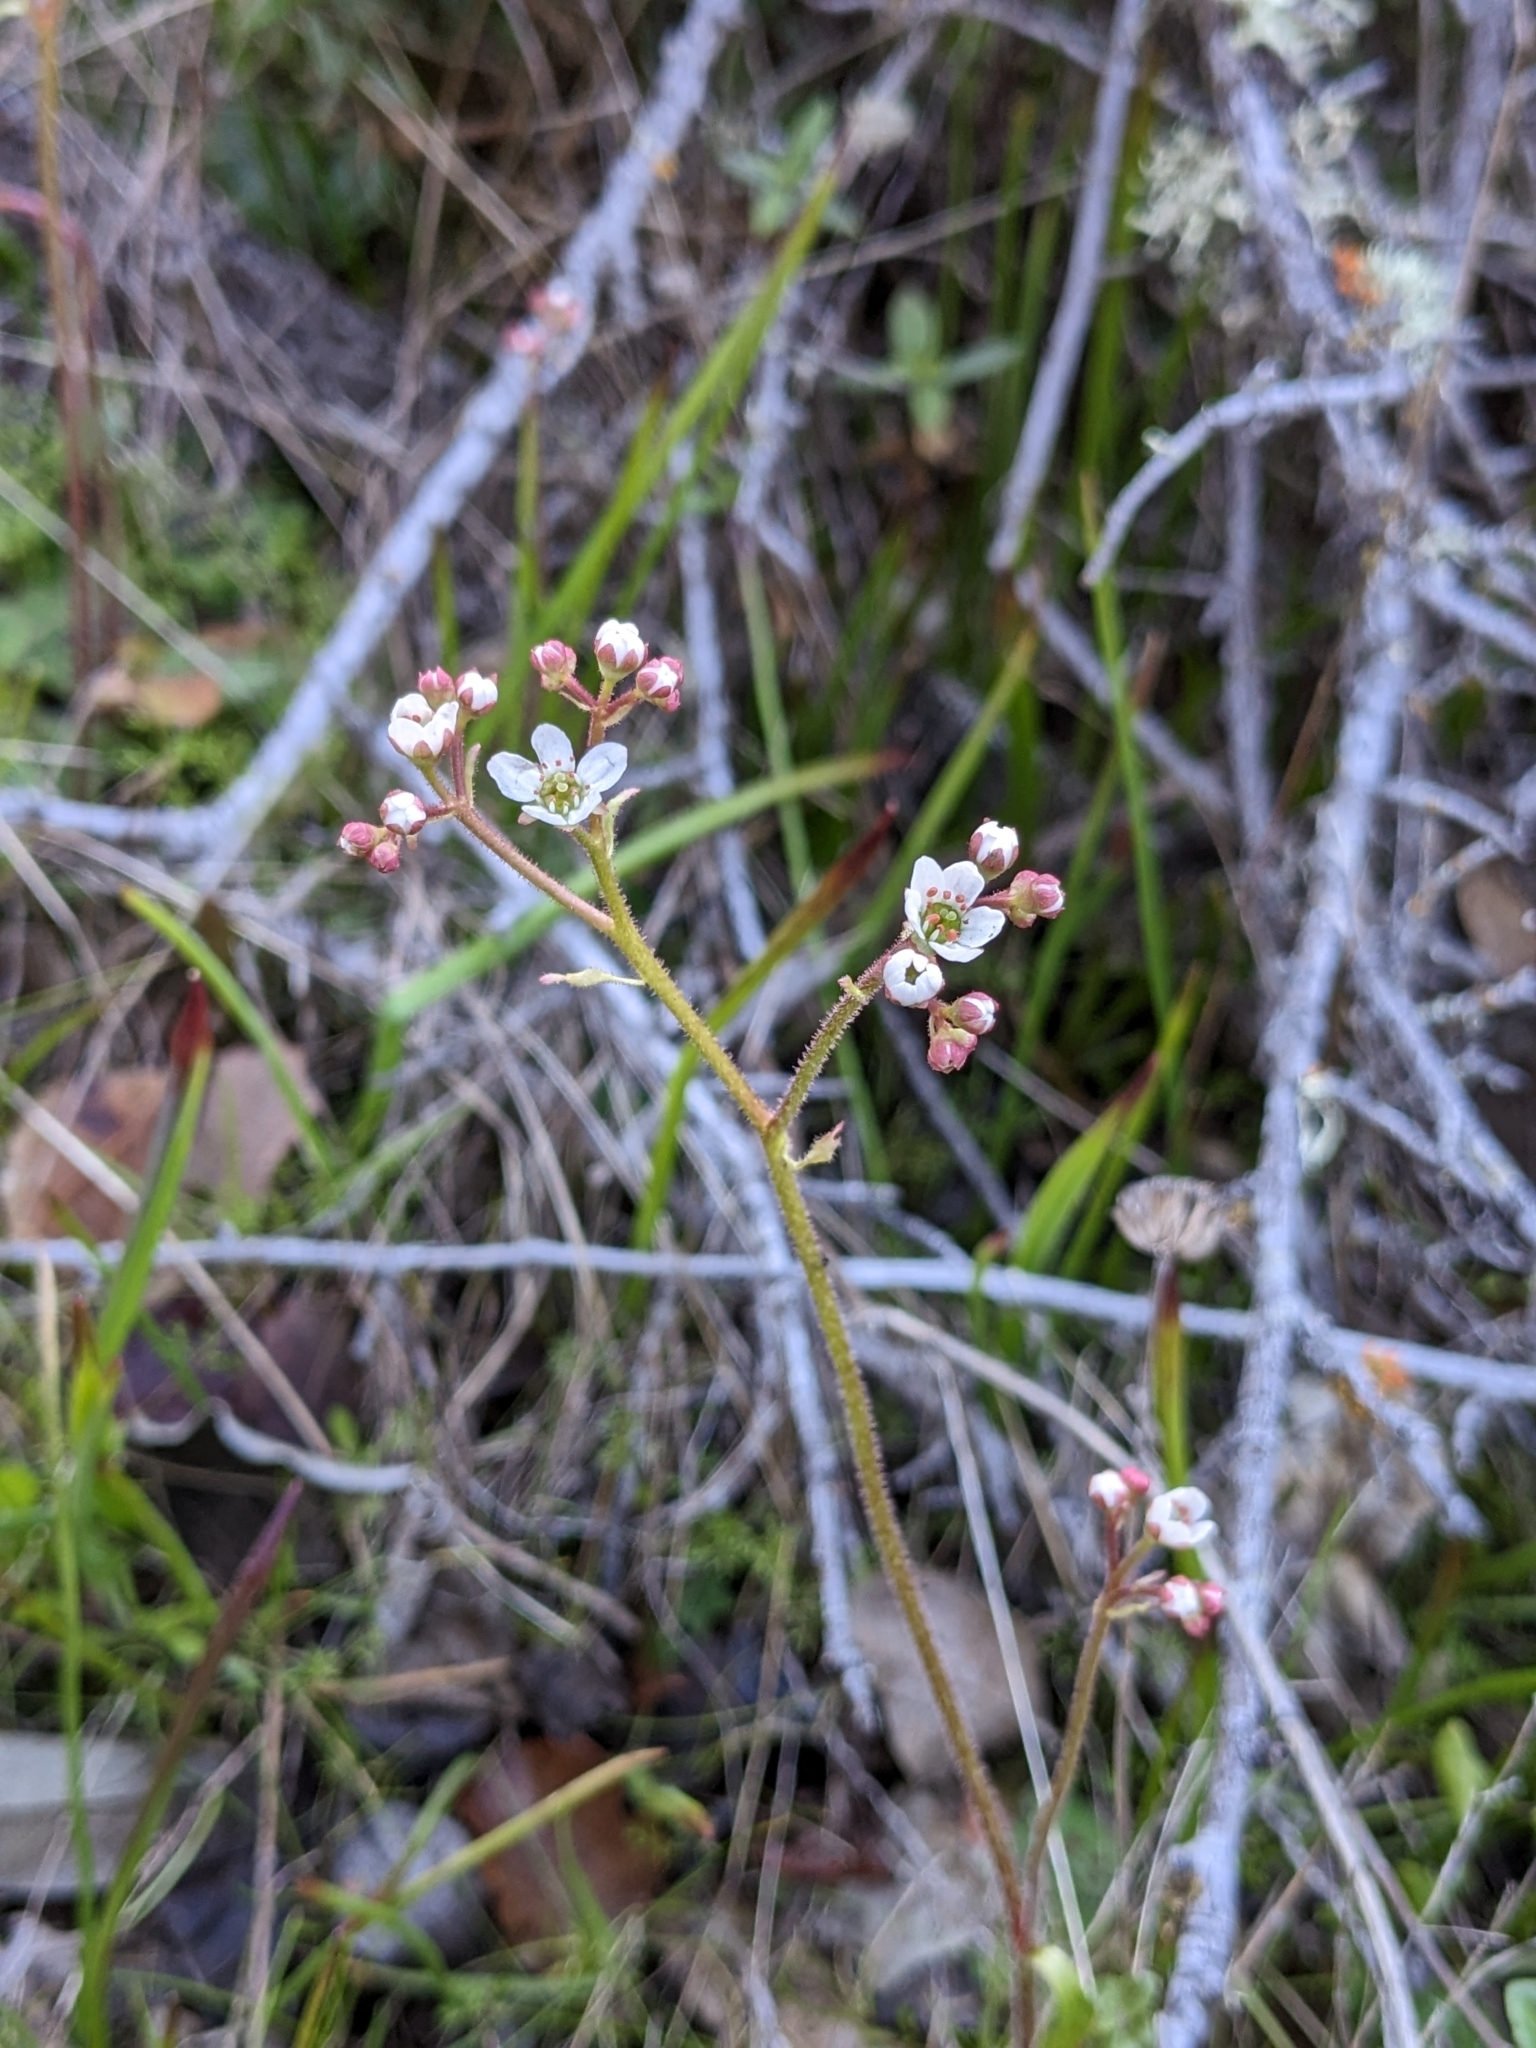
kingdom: Plantae
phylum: Tracheophyta
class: Magnoliopsida
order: Saxifragales
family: Saxifragaceae
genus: Micranthes
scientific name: Micranthes californica
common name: California saxifrage
